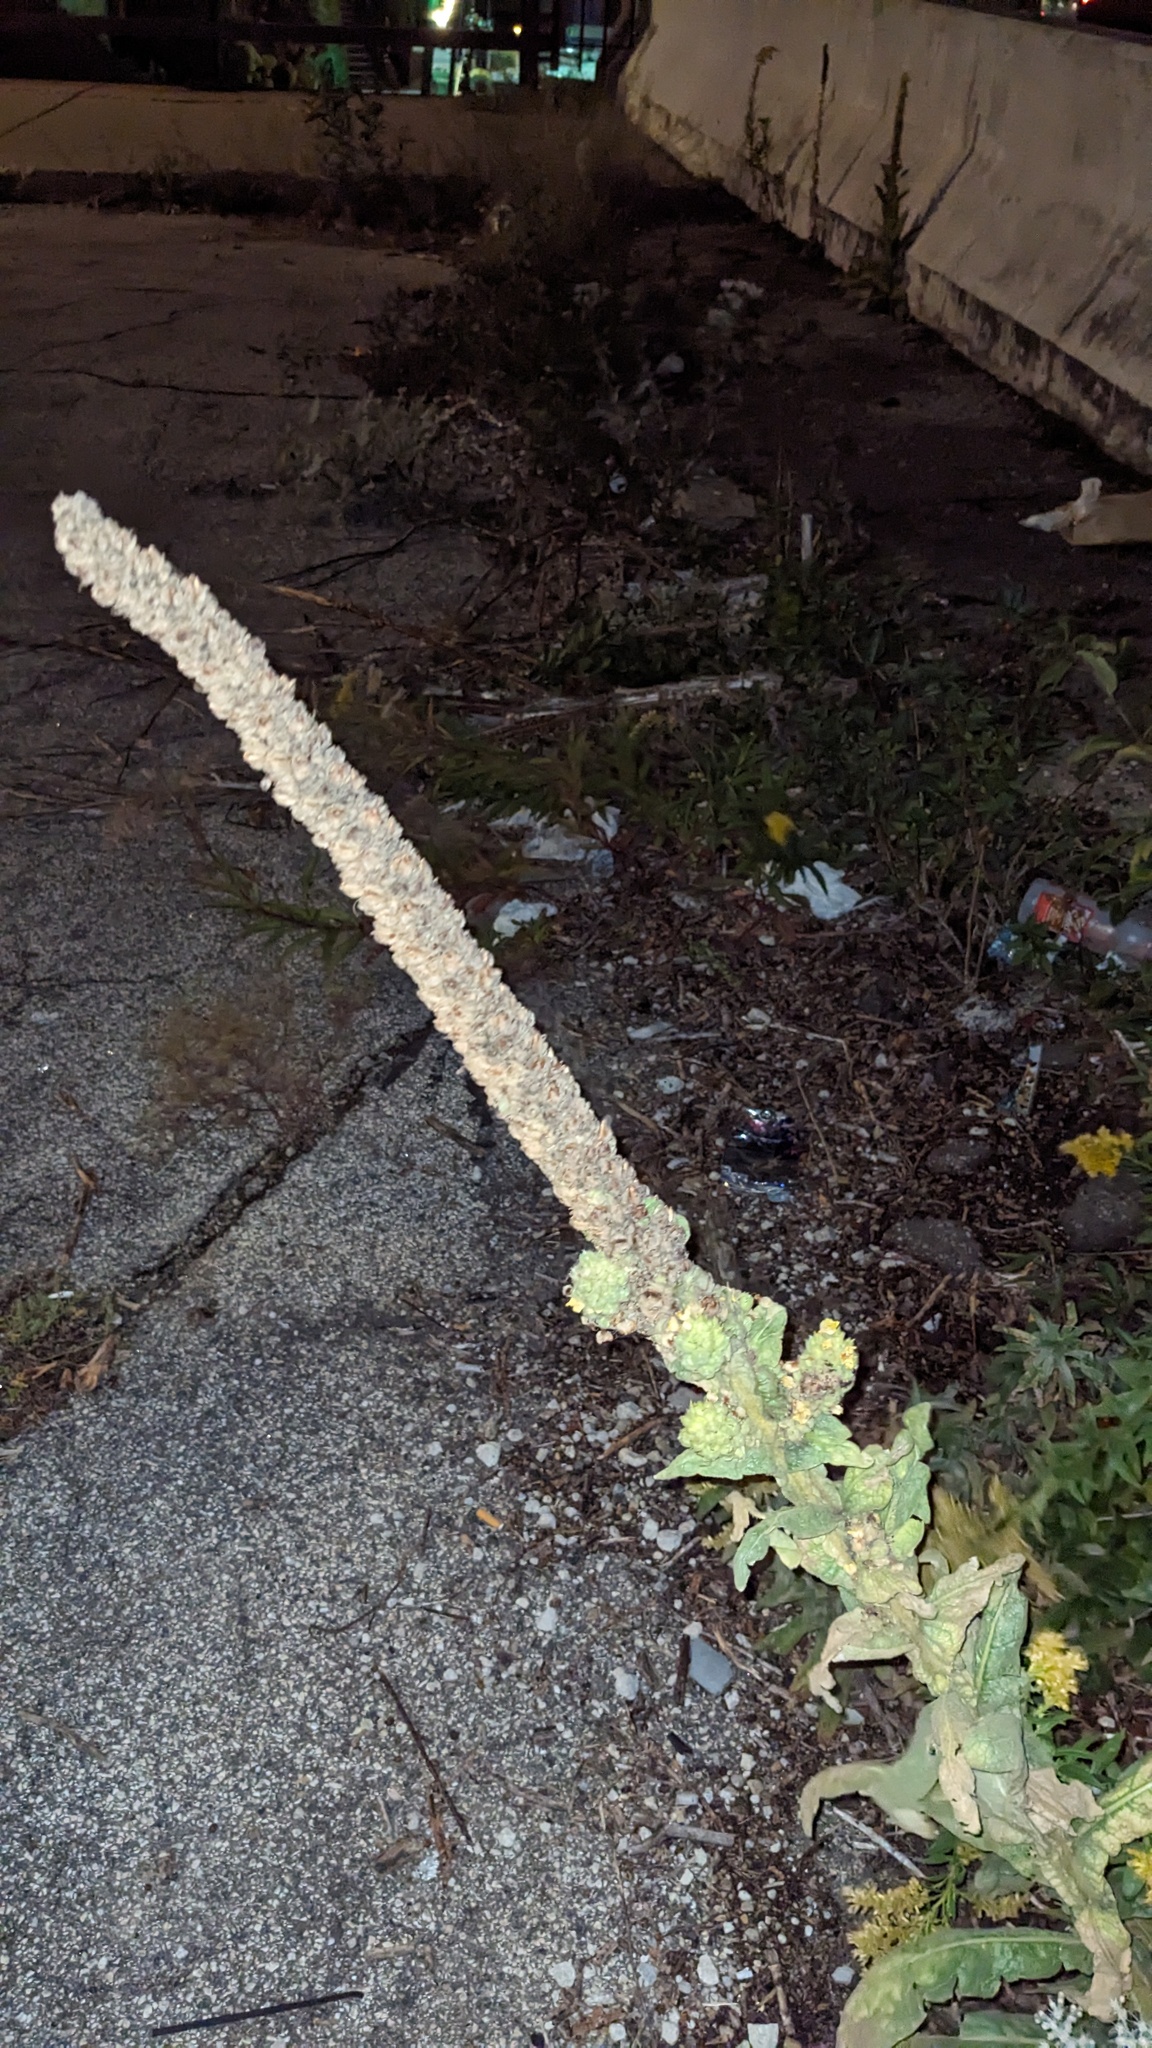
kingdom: Plantae
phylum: Tracheophyta
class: Magnoliopsida
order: Lamiales
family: Scrophulariaceae
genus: Verbascum
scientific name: Verbascum thapsus
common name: Common mullein
